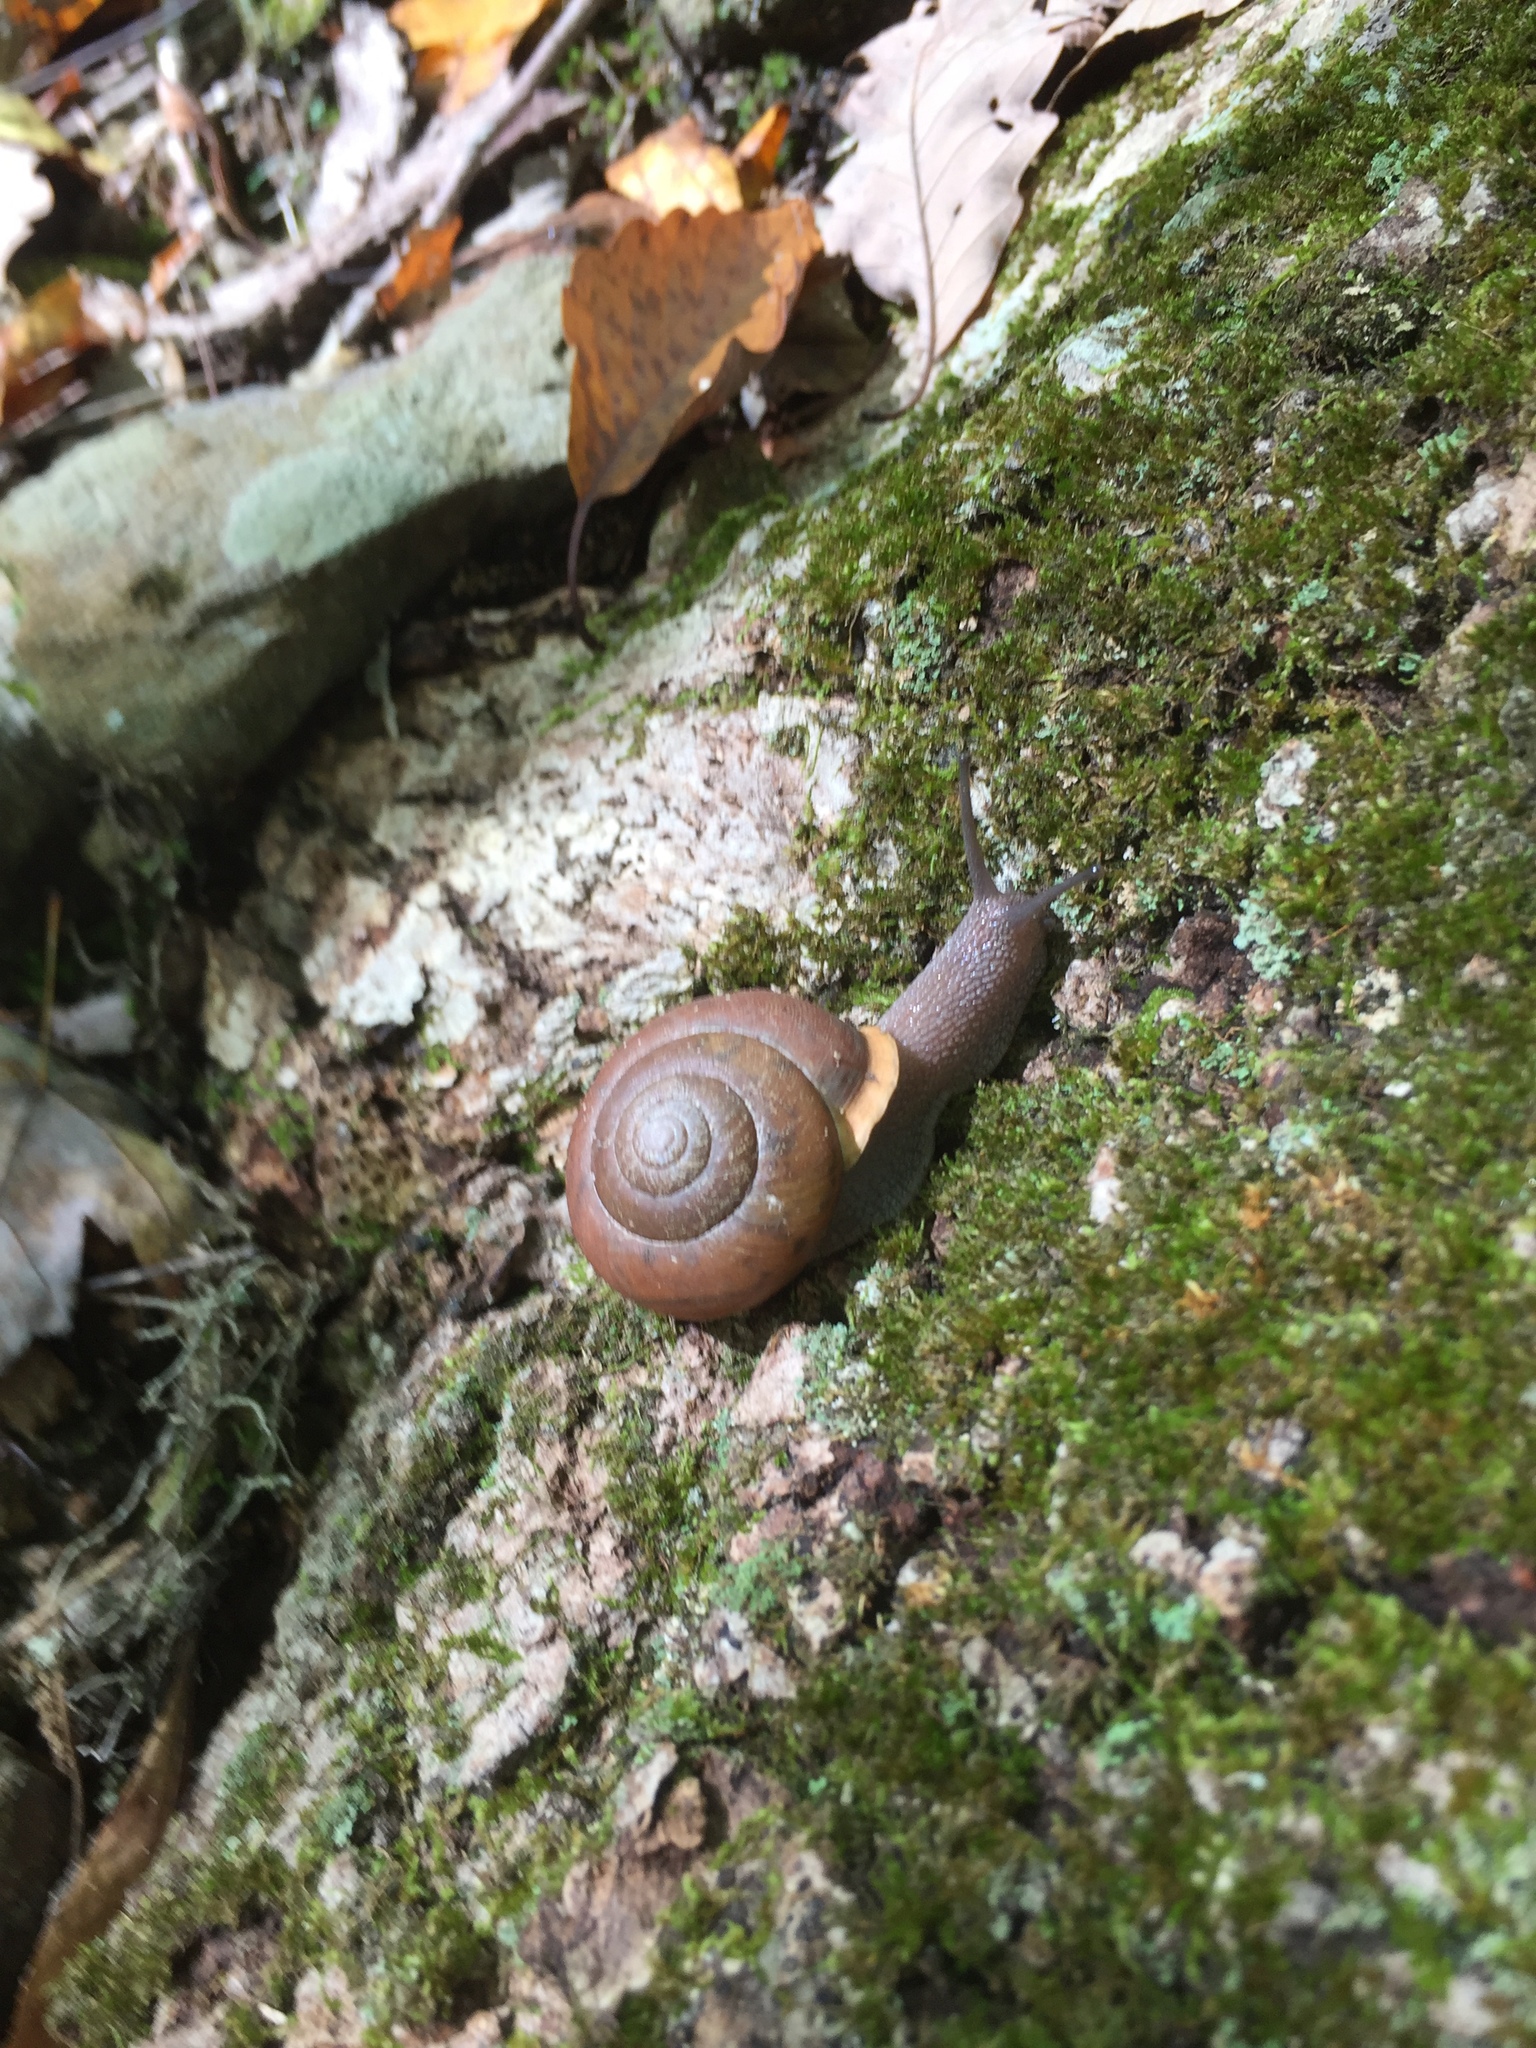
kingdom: Animalia
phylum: Mollusca
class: Gastropoda
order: Stylommatophora
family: Polygyridae
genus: Neohelix
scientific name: Neohelix albolabris
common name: Eastern whitelip
